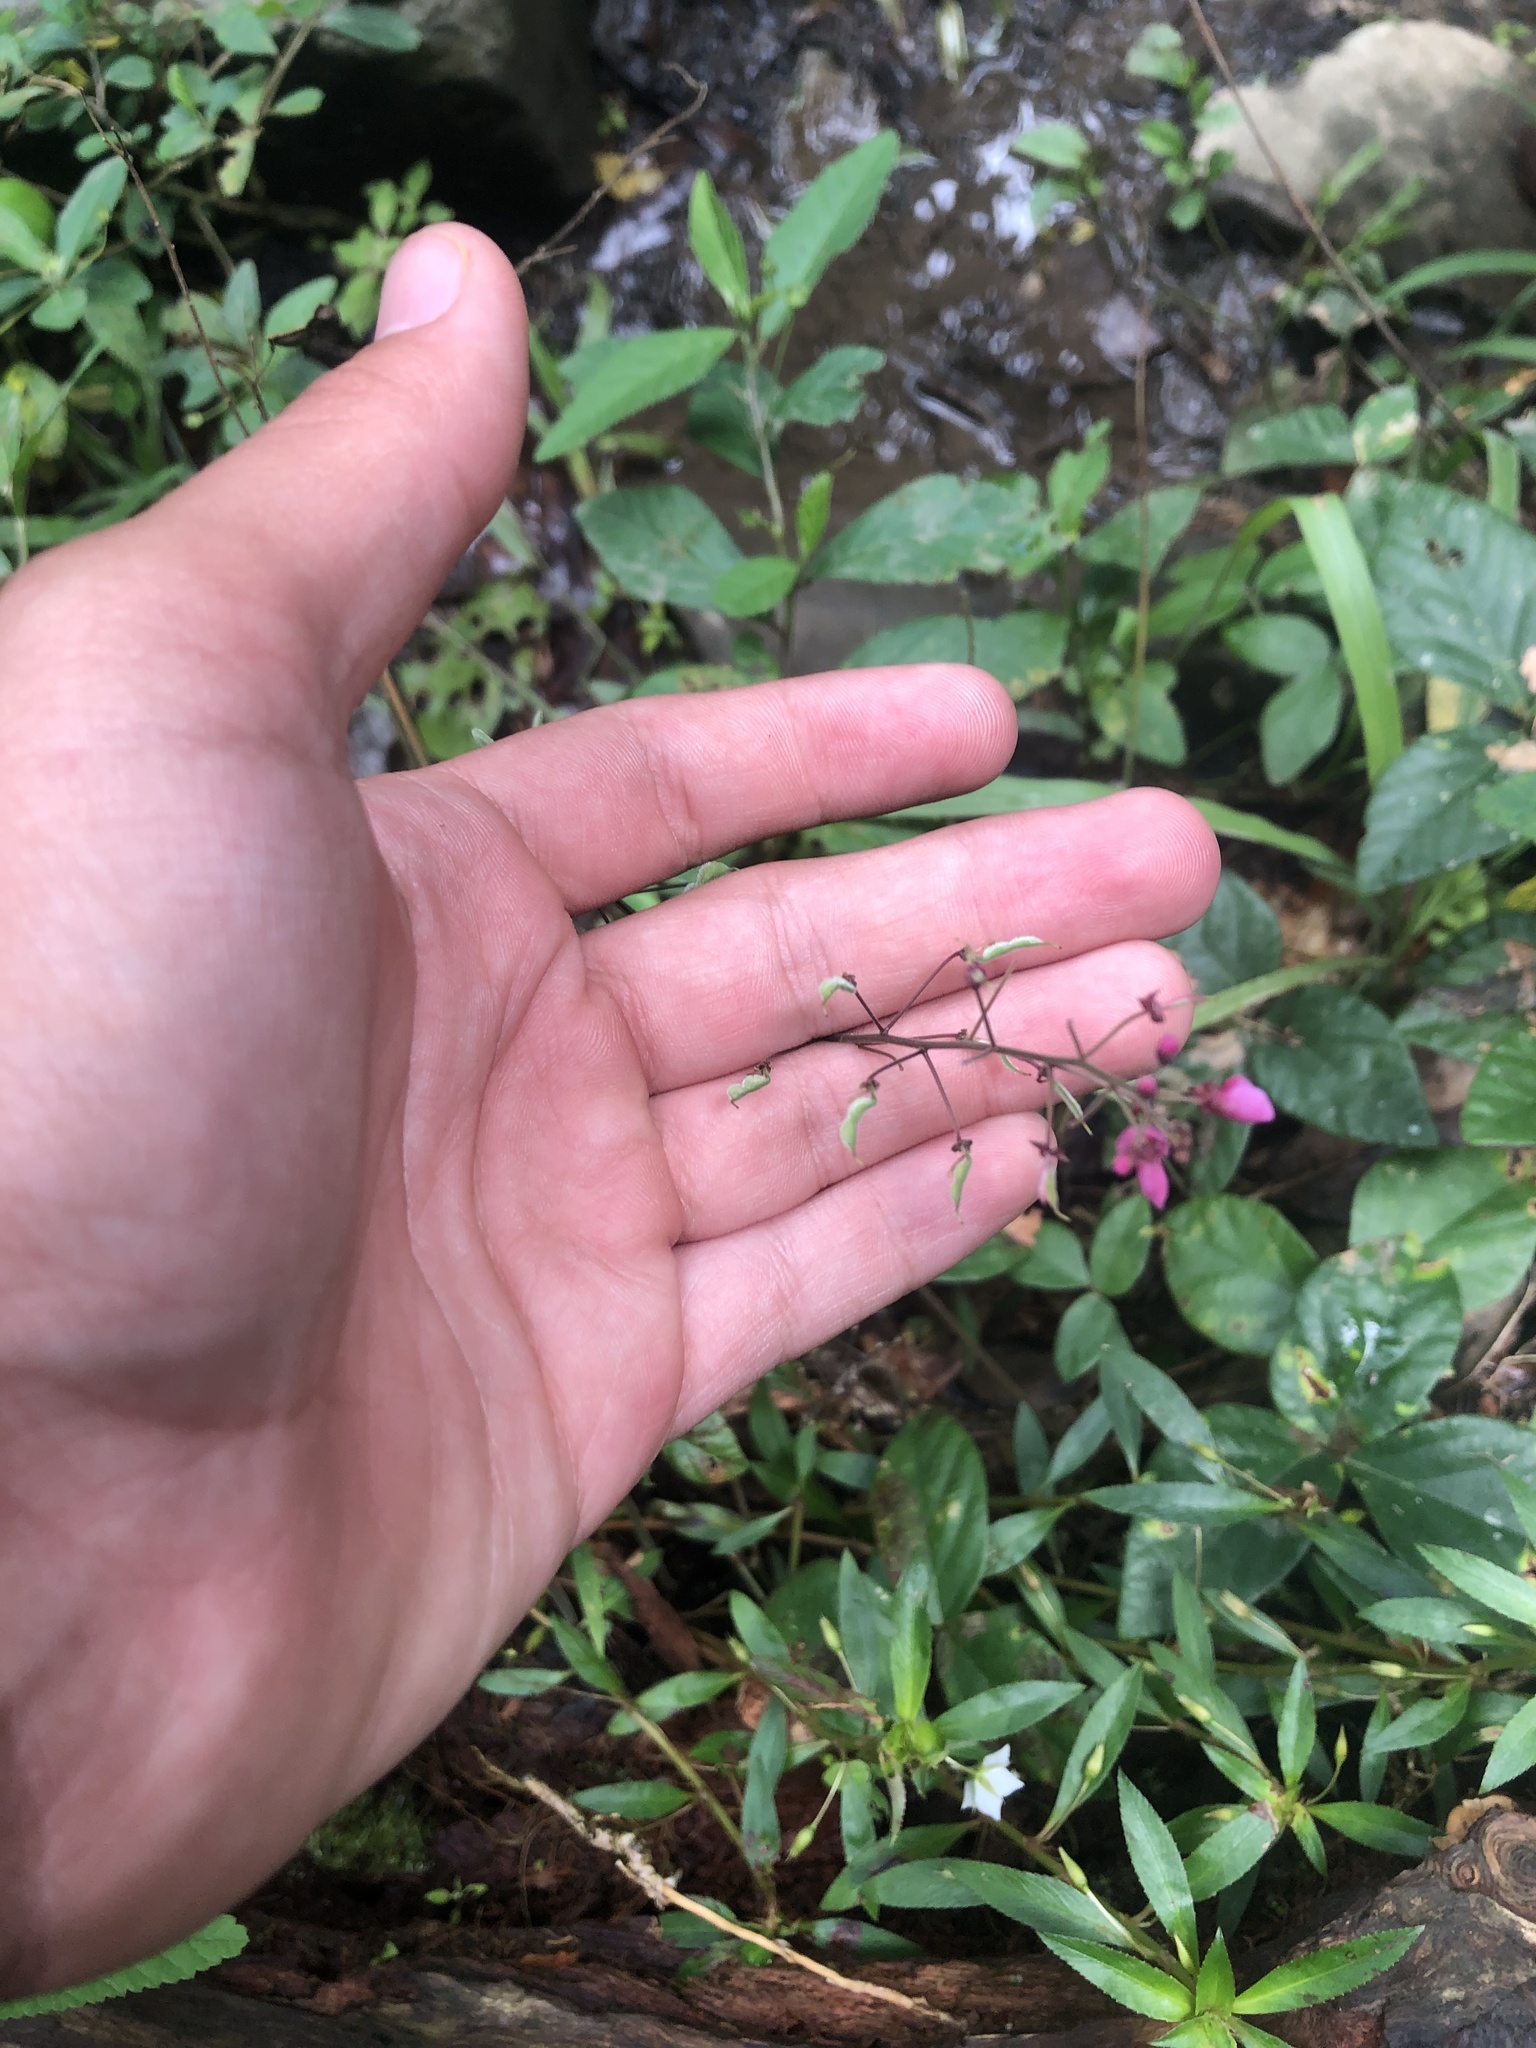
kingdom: Plantae
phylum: Tracheophyta
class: Magnoliopsida
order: Fabales
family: Fabaceae
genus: Desmodium
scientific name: Desmodium axillare
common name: Wire with
